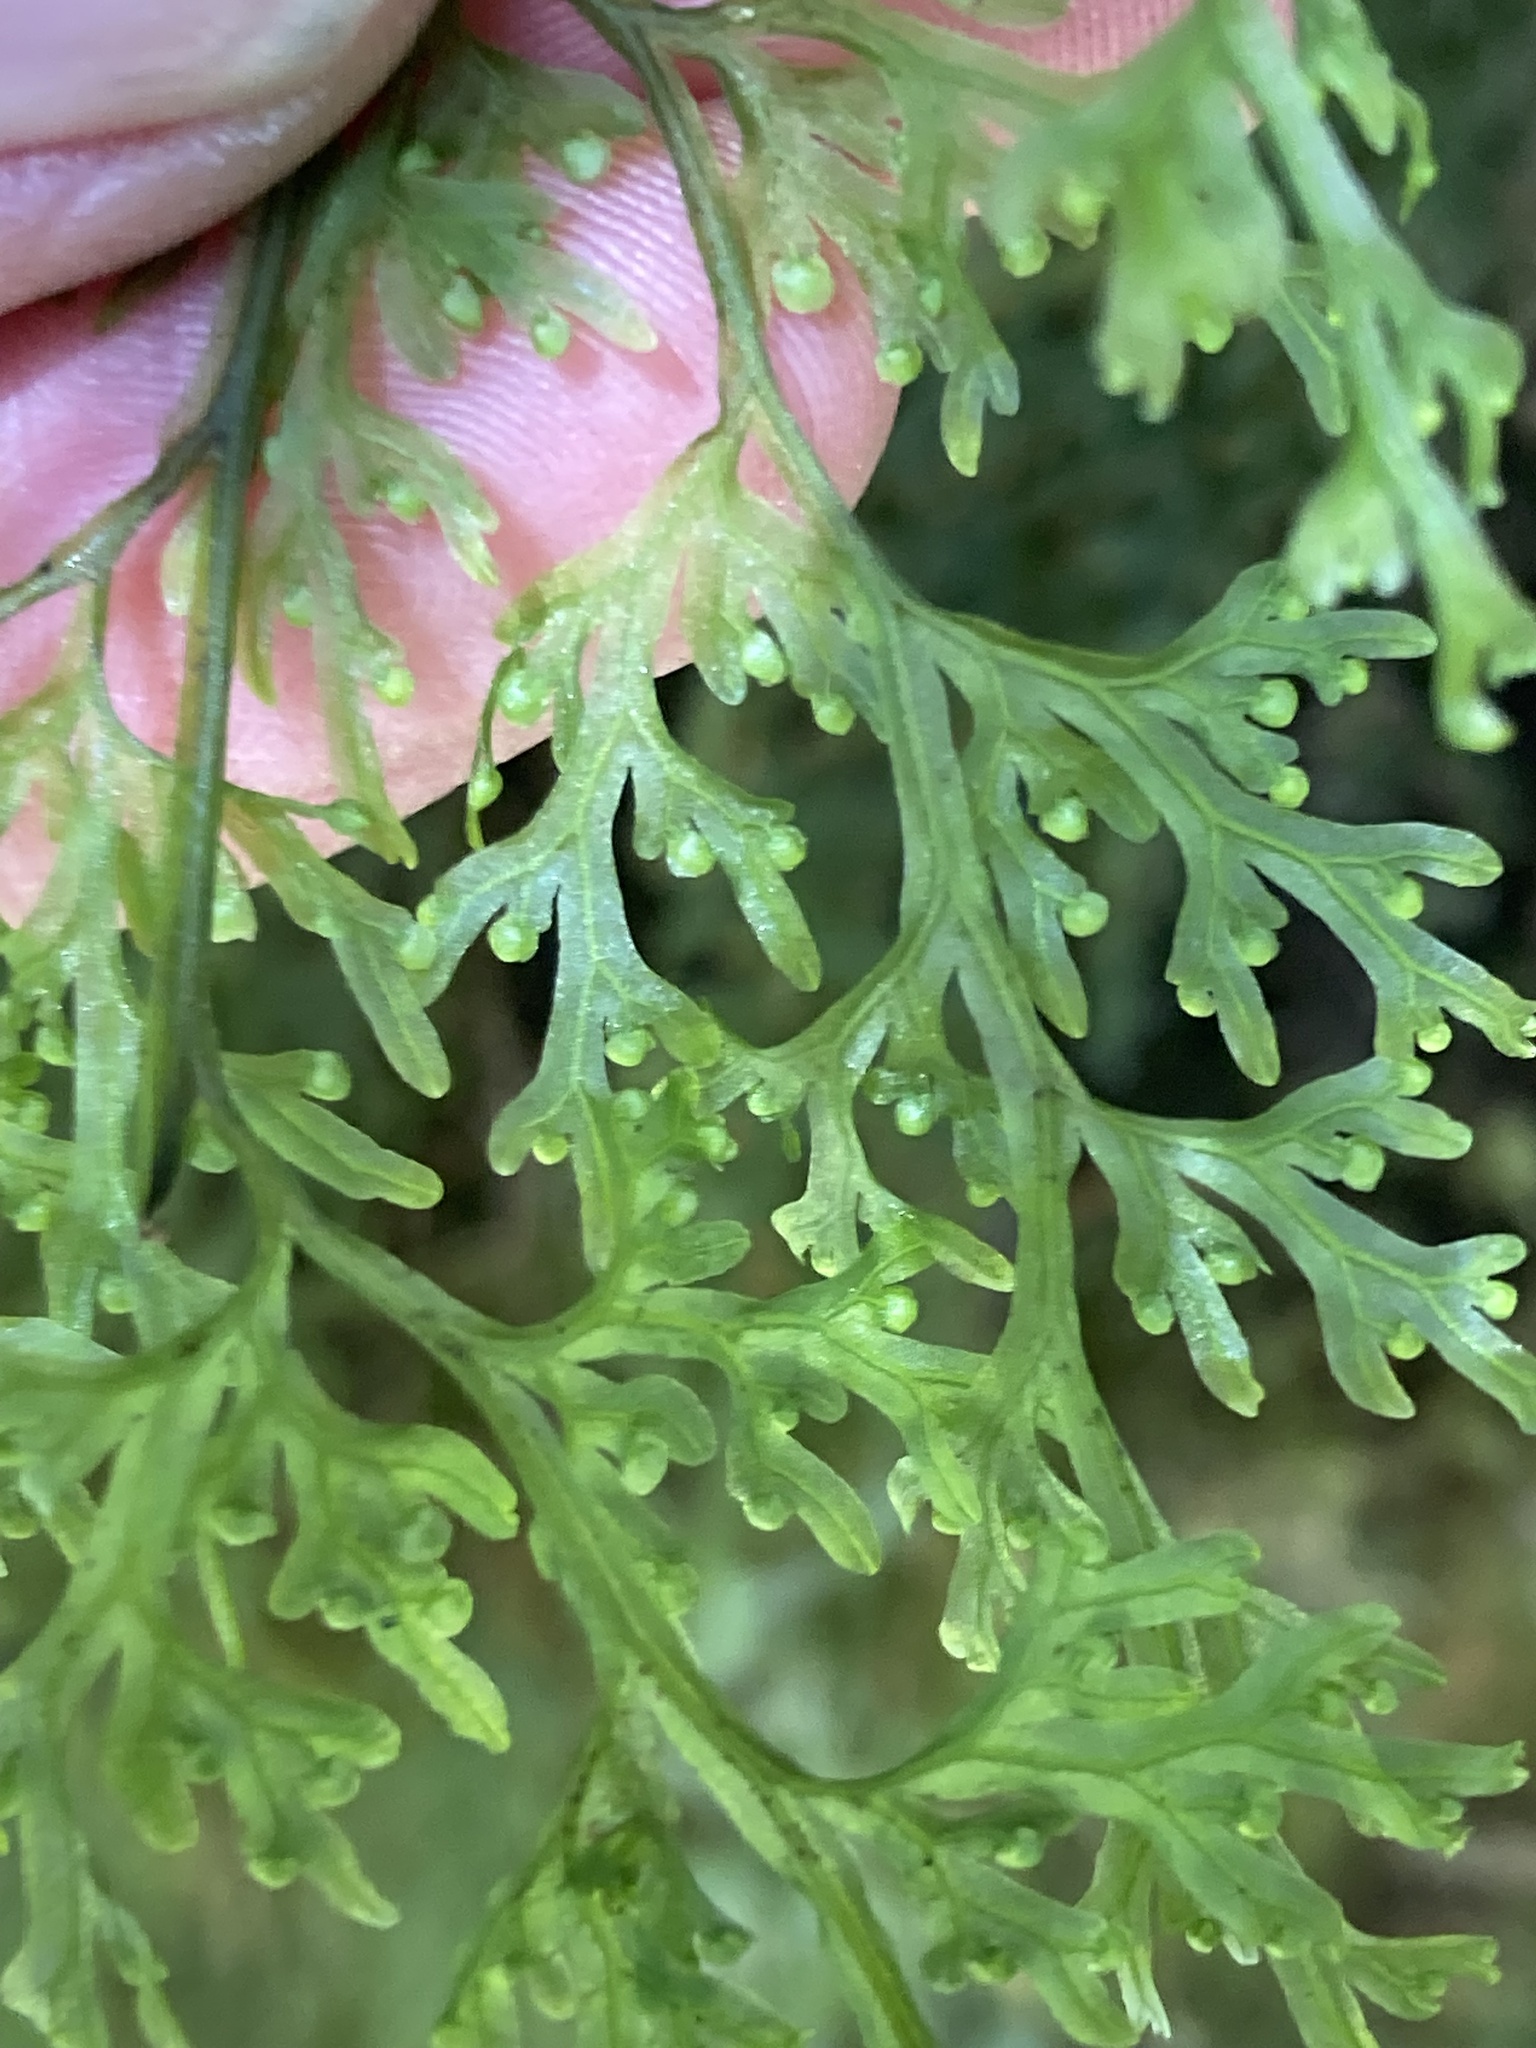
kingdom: Plantae
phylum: Tracheophyta
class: Polypodiopsida
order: Hymenophyllales
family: Hymenophyllaceae
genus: Hymenophyllum
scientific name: Hymenophyllum pulcherrimum
